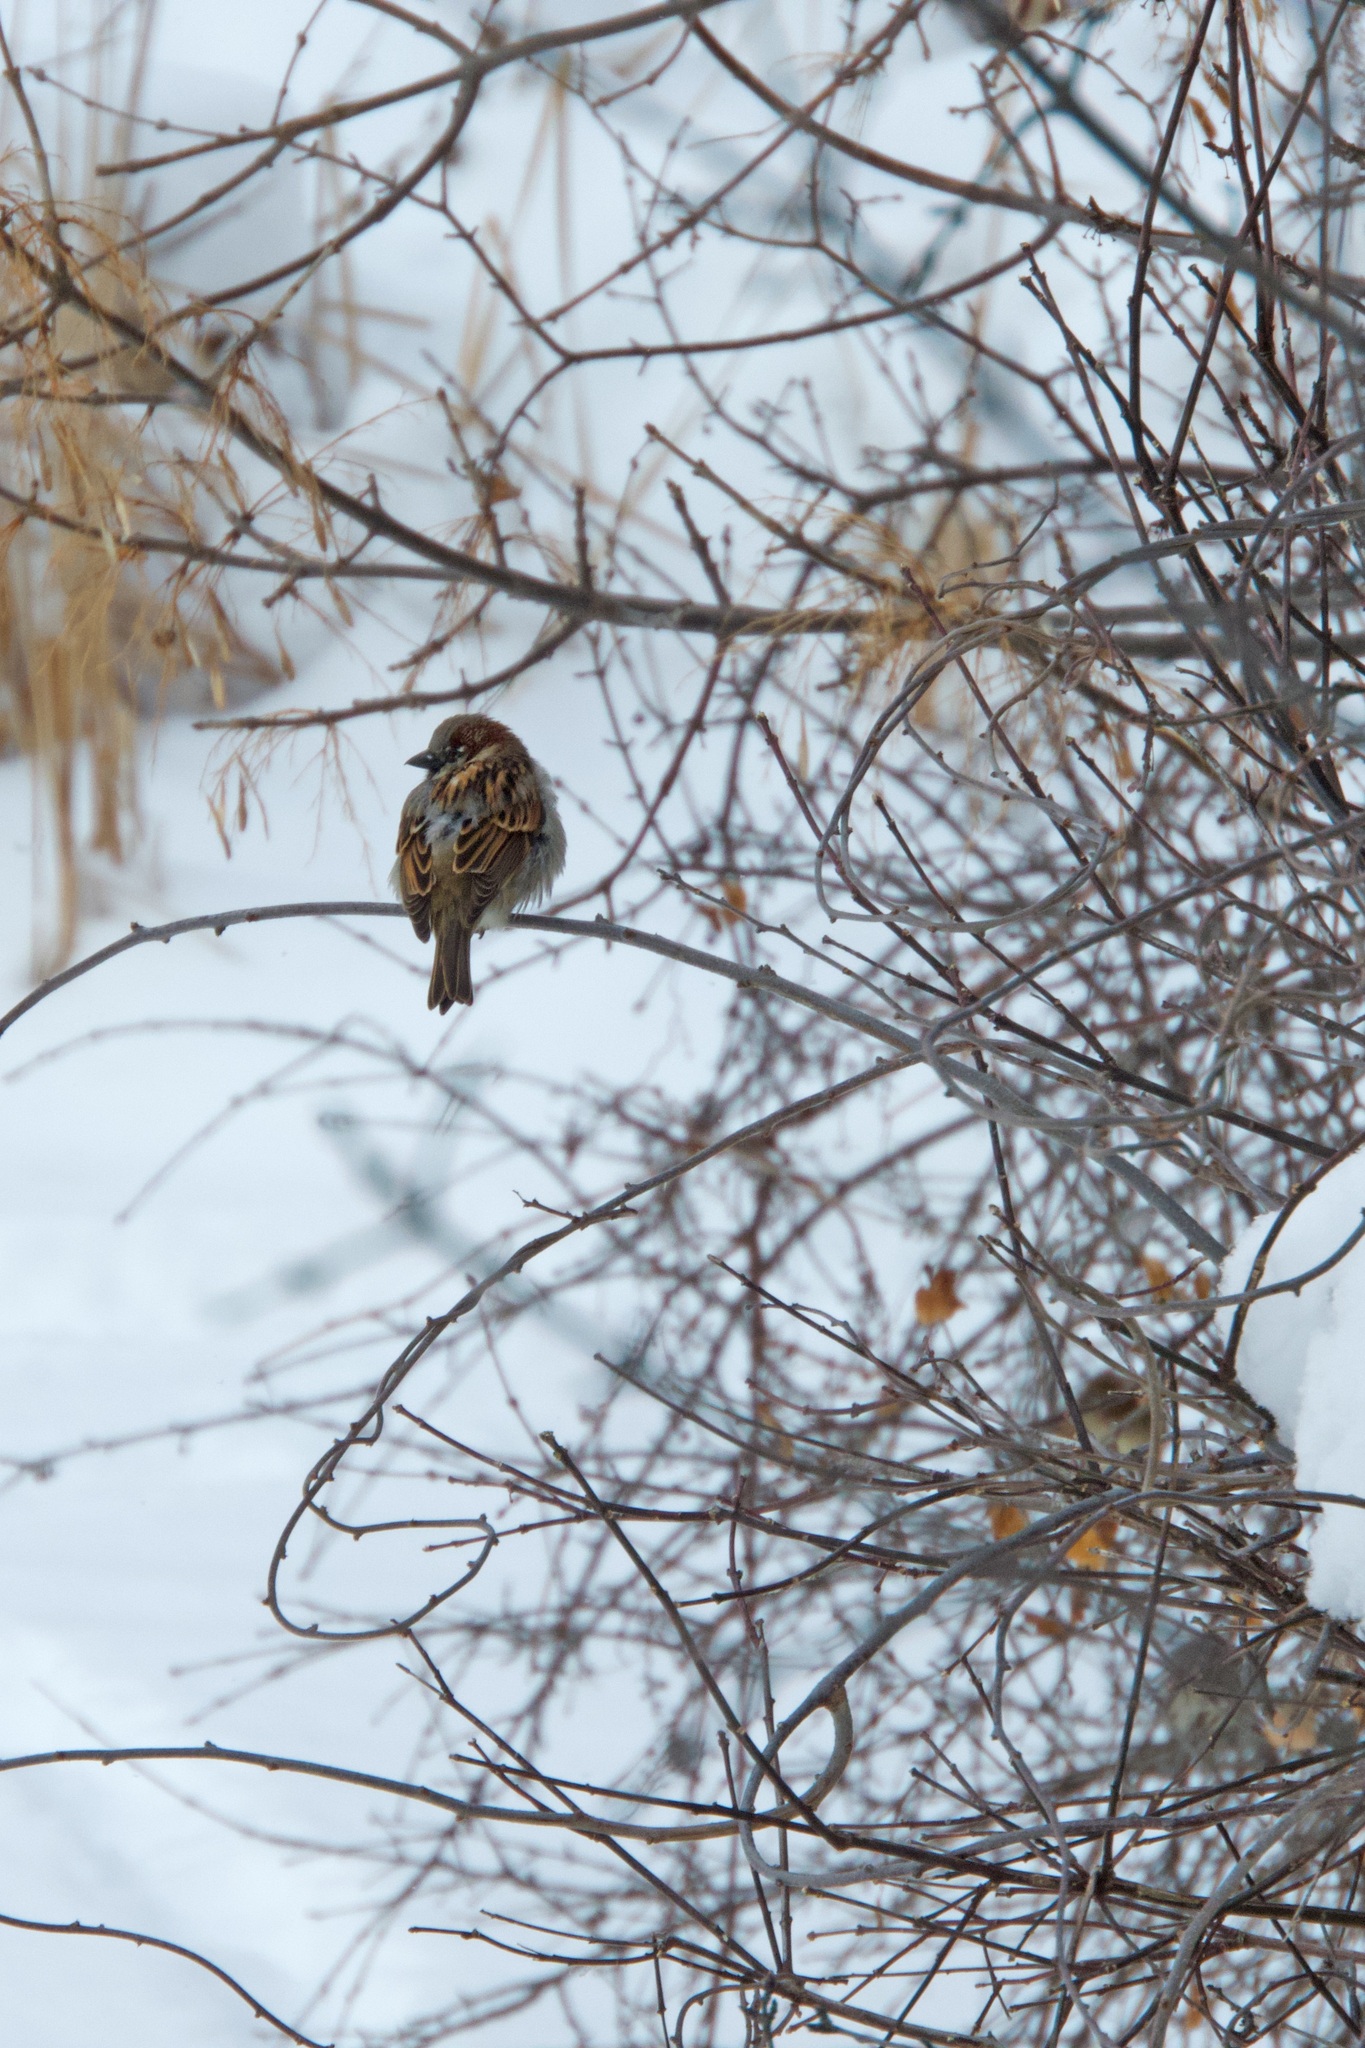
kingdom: Animalia
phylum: Chordata
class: Aves
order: Passeriformes
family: Passeridae
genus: Passer
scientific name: Passer domesticus
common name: House sparrow
